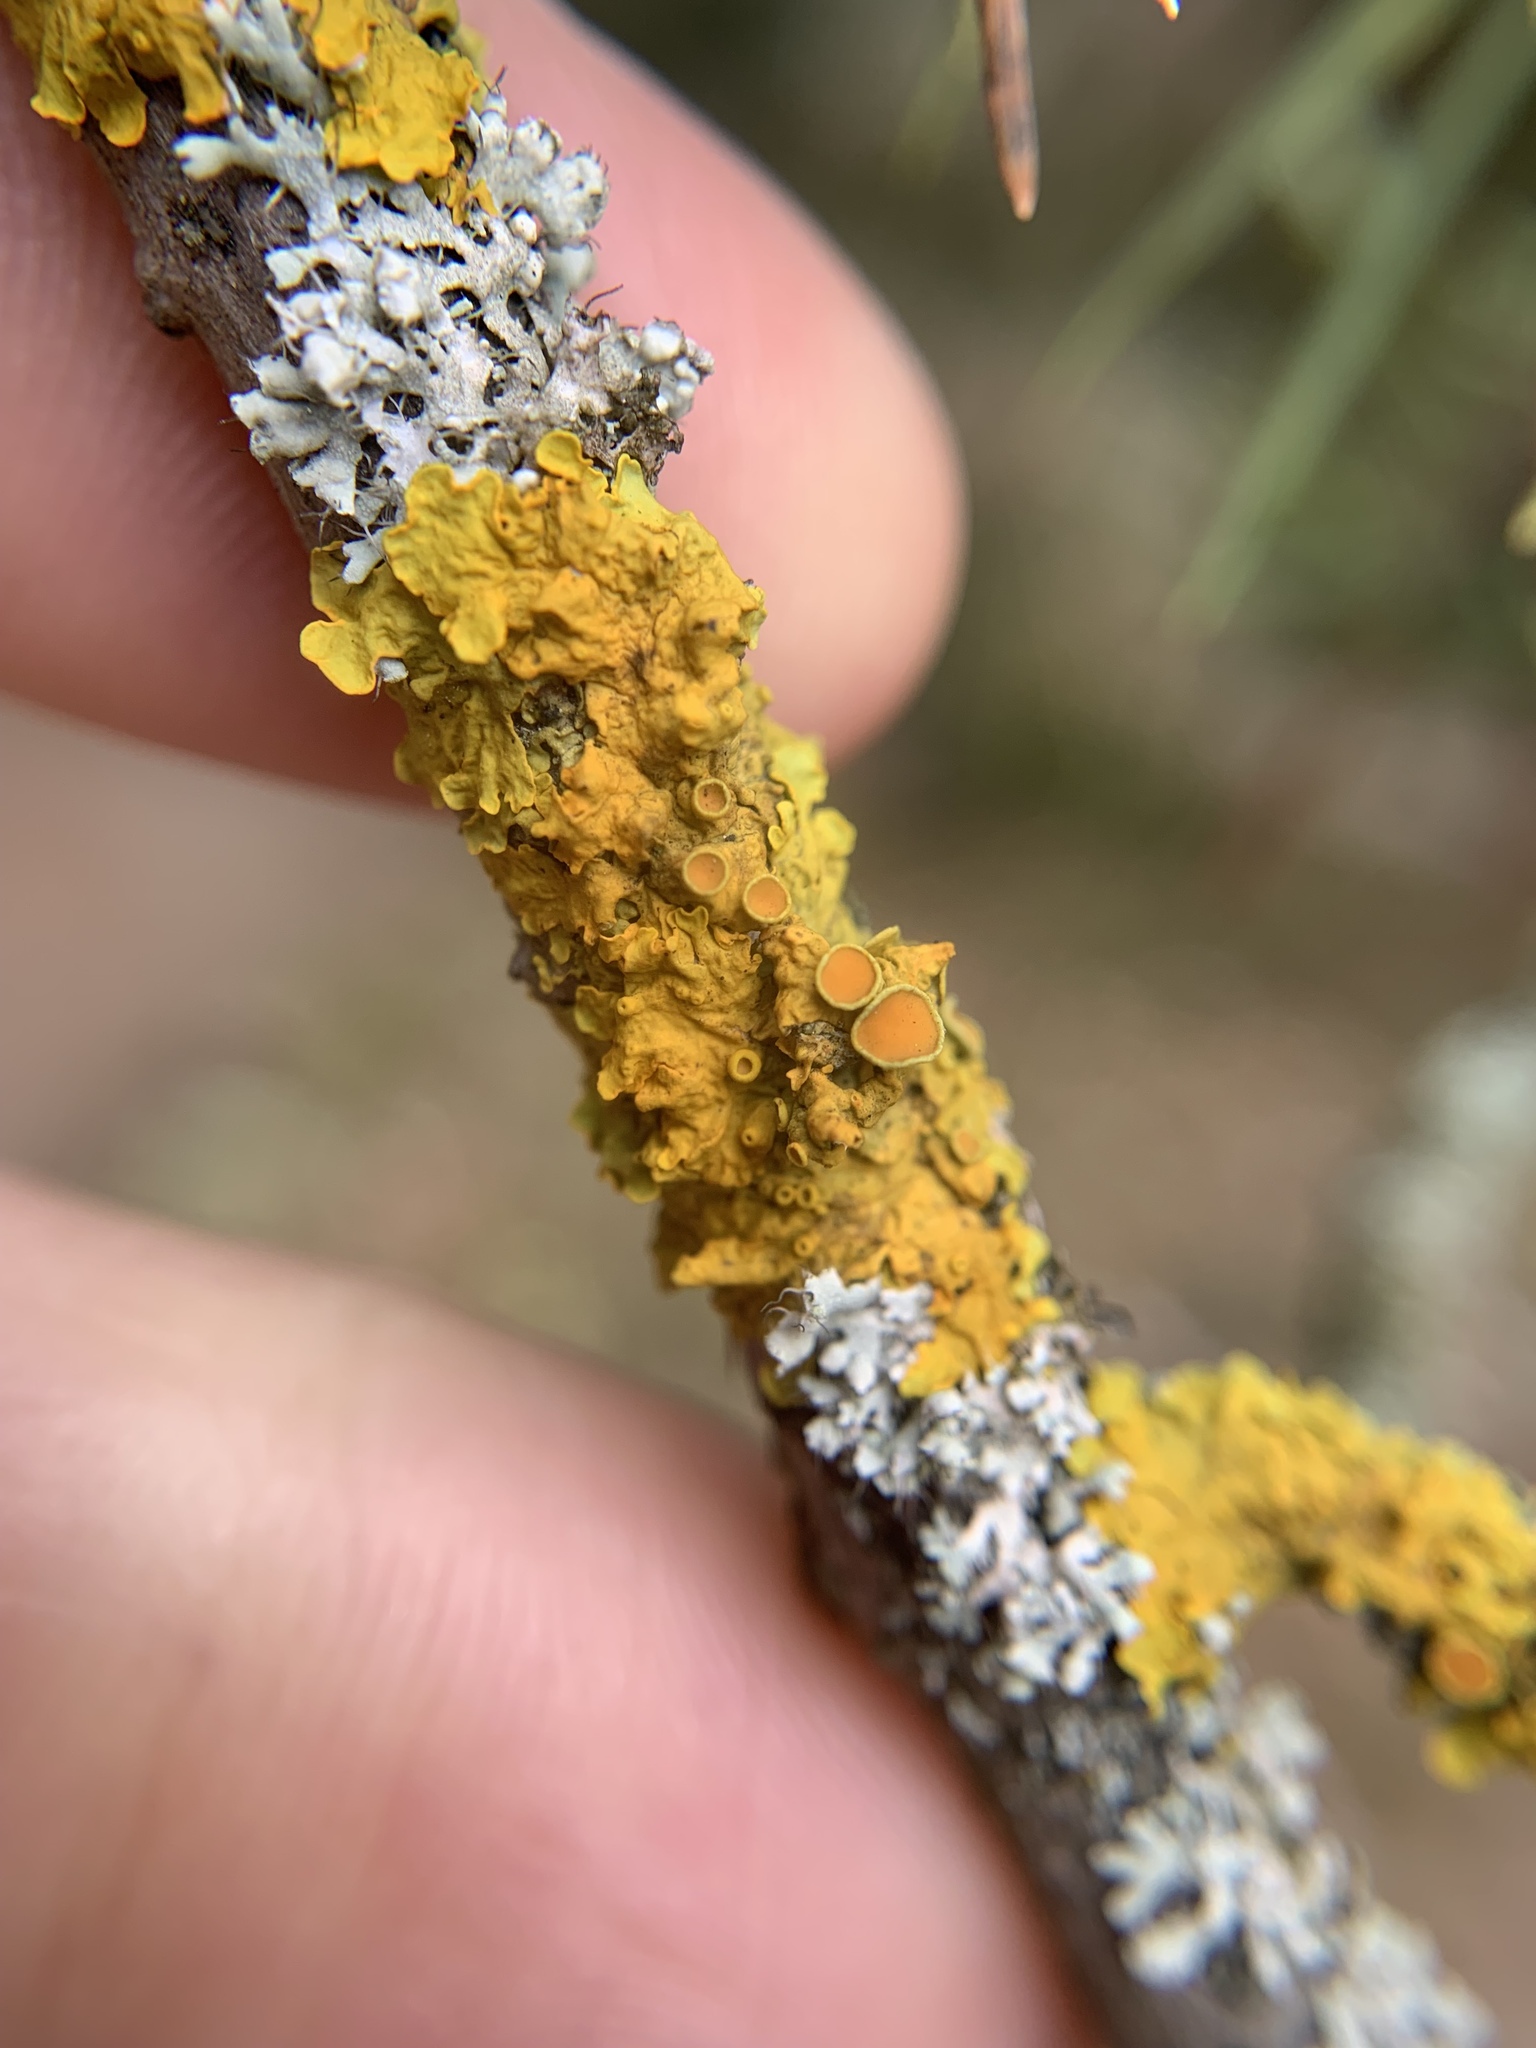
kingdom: Fungi
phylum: Ascomycota
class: Lecanoromycetes
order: Teloschistales
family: Teloschistaceae
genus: Xanthoria
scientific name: Xanthoria parietina
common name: Common orange lichen
